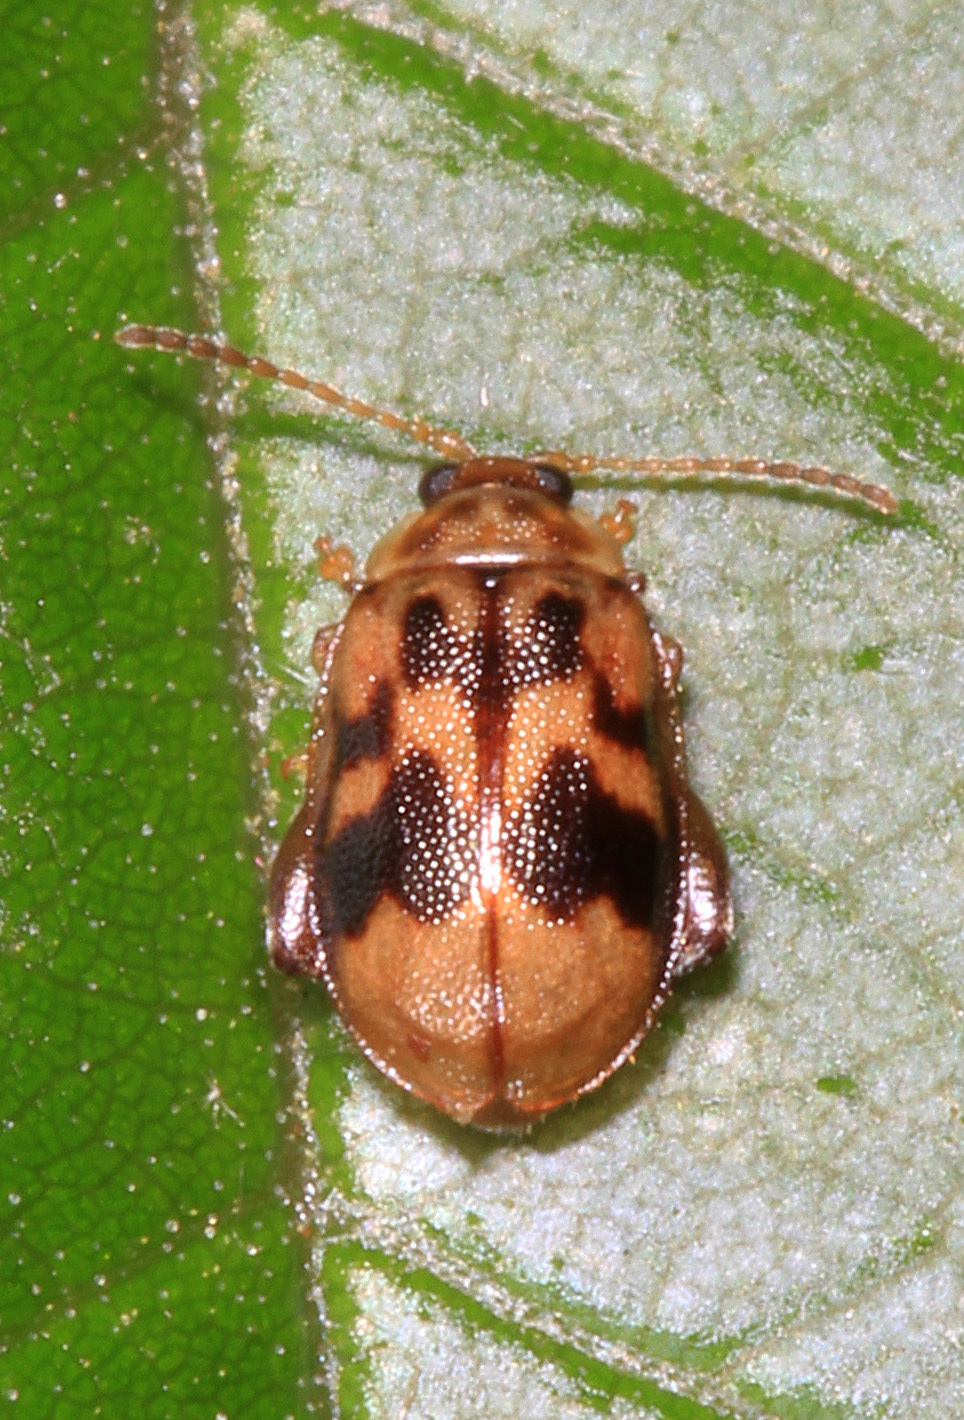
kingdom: Animalia
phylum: Arthropoda
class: Insecta
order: Coleoptera
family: Chrysomelidae
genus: Capraita
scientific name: Capraita sexmaculata
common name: Charlie brown flea beetle
